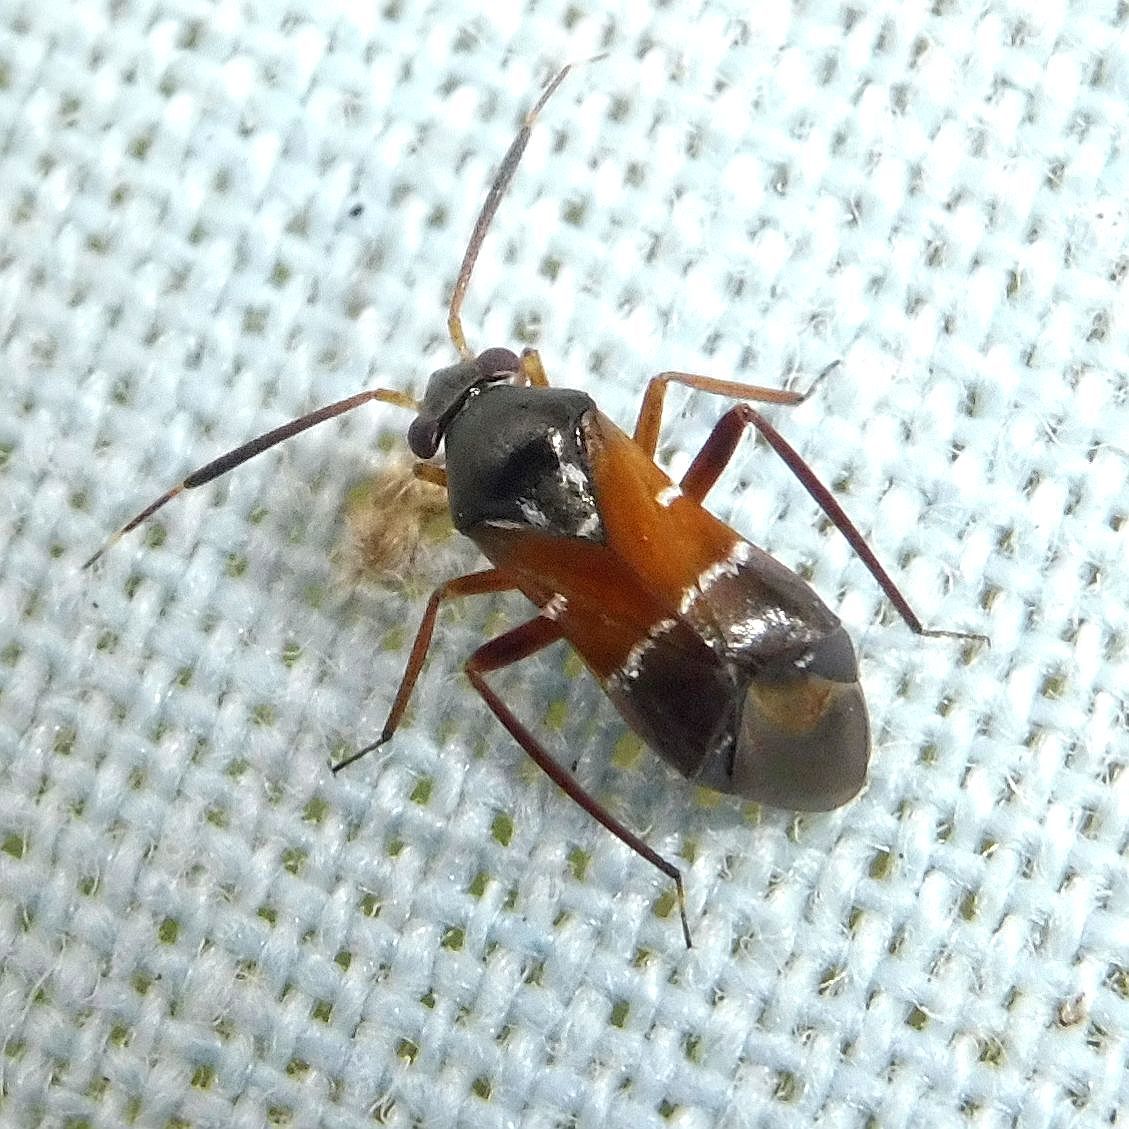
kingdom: Animalia
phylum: Arthropoda
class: Insecta
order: Hemiptera
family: Miridae
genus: Pilophorus
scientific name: Pilophorus cinnamopterus
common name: Plant bug
